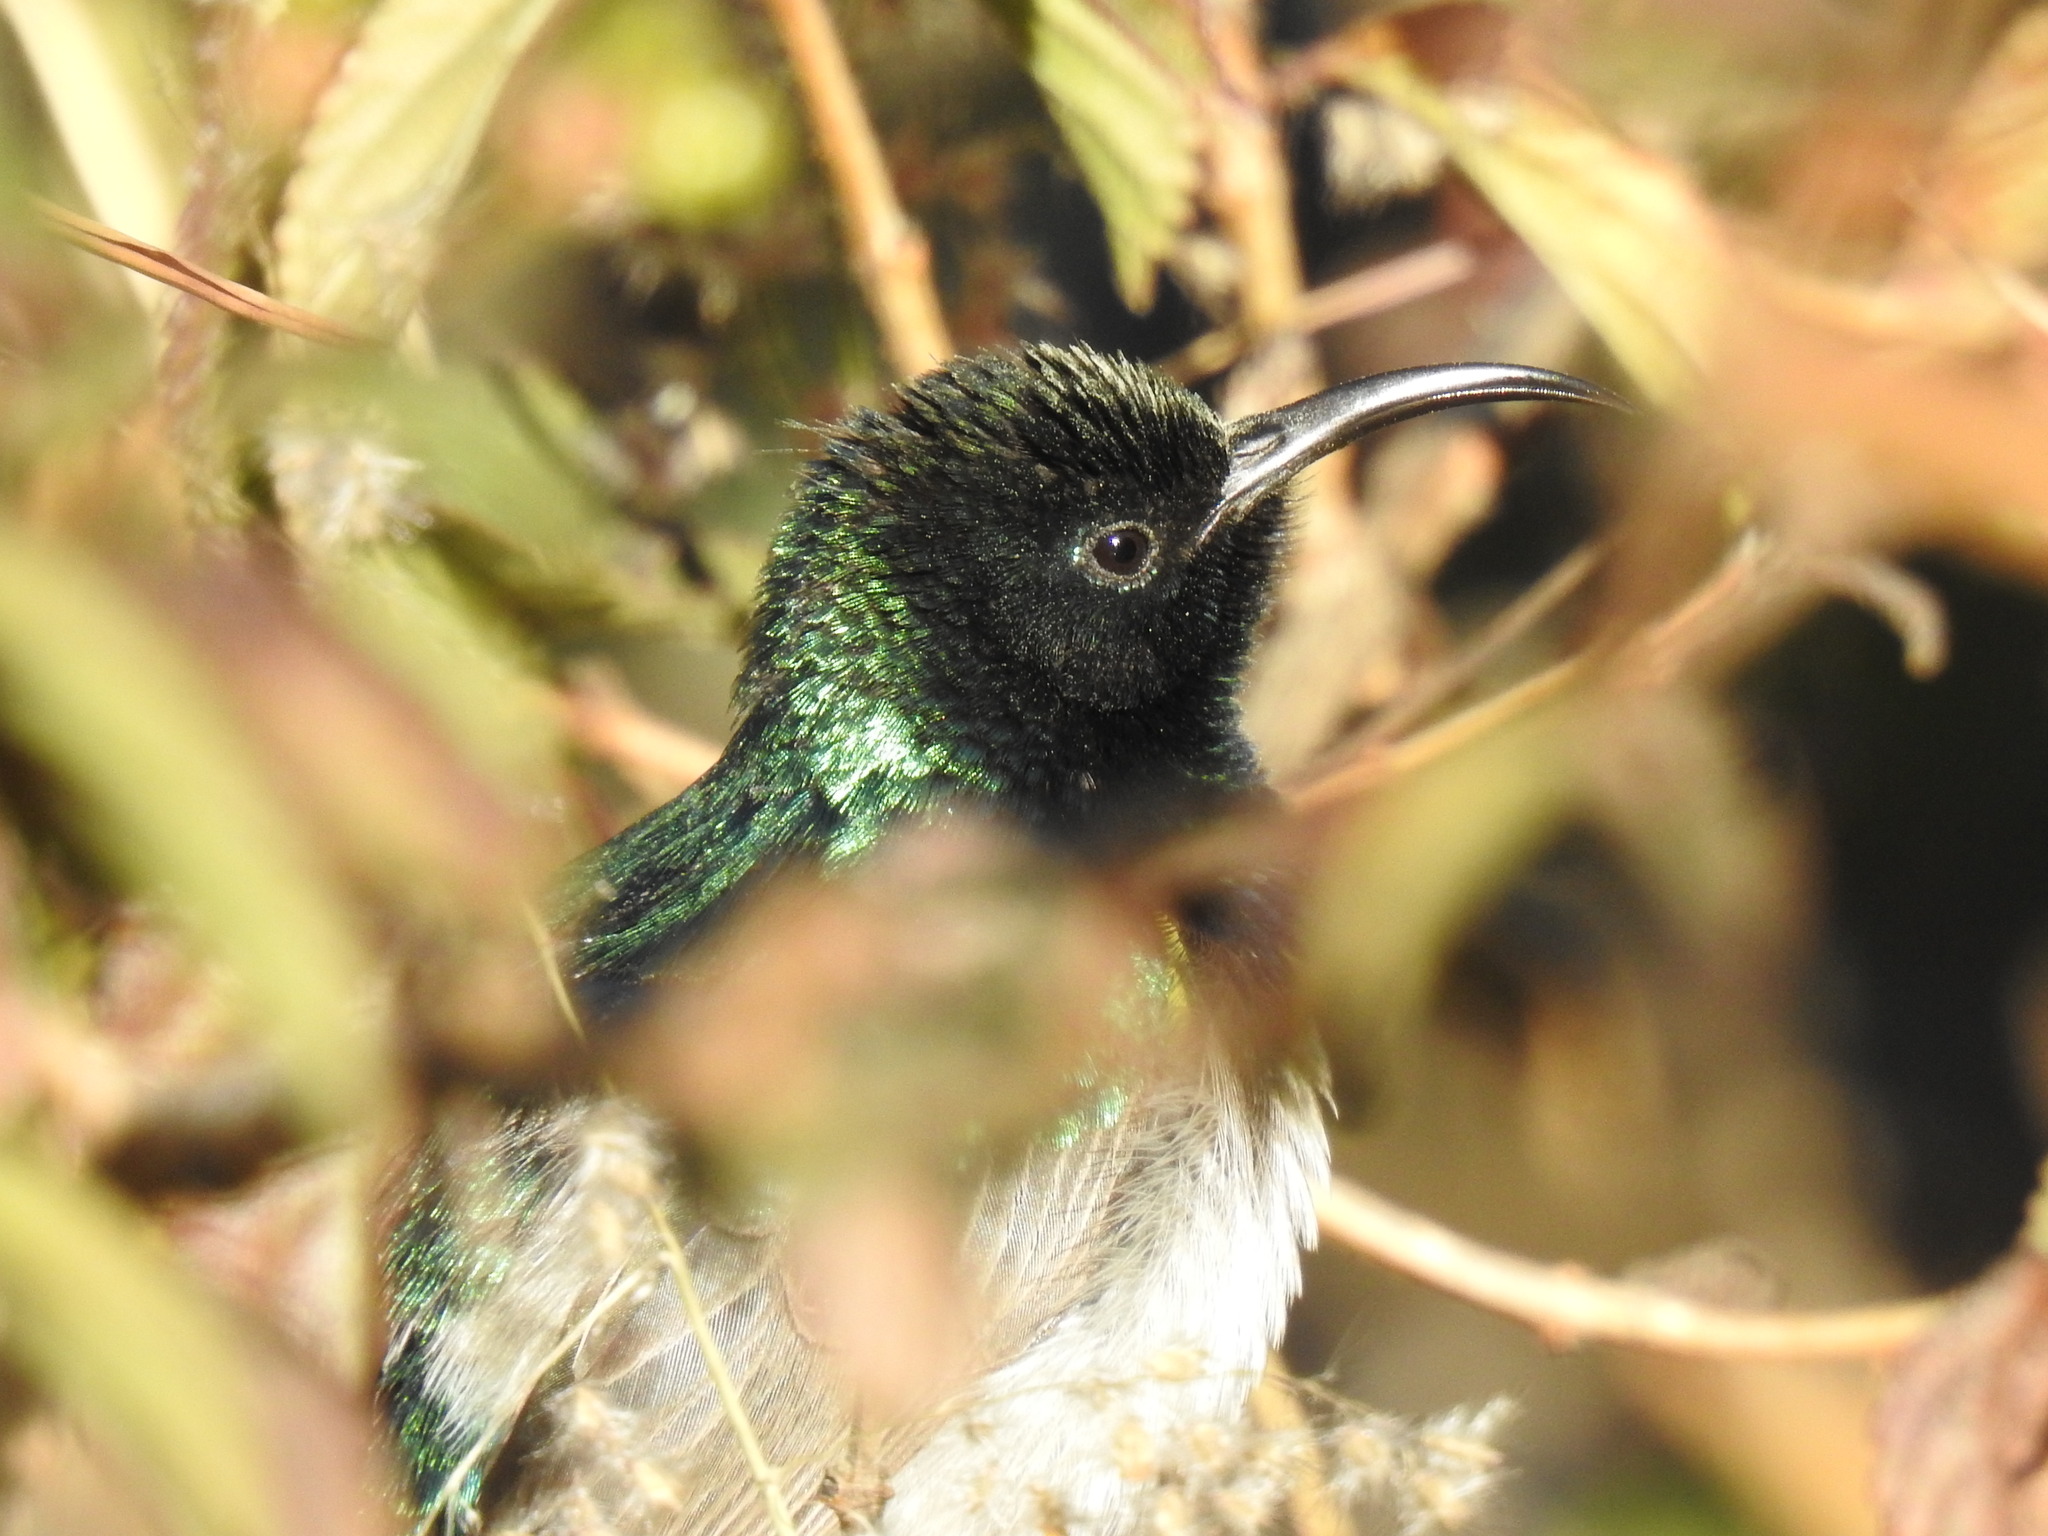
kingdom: Animalia
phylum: Chordata
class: Aves
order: Passeriformes
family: Nectariniidae
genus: Cinnyris
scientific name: Cinnyris talatala
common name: White-bellied sunbird
